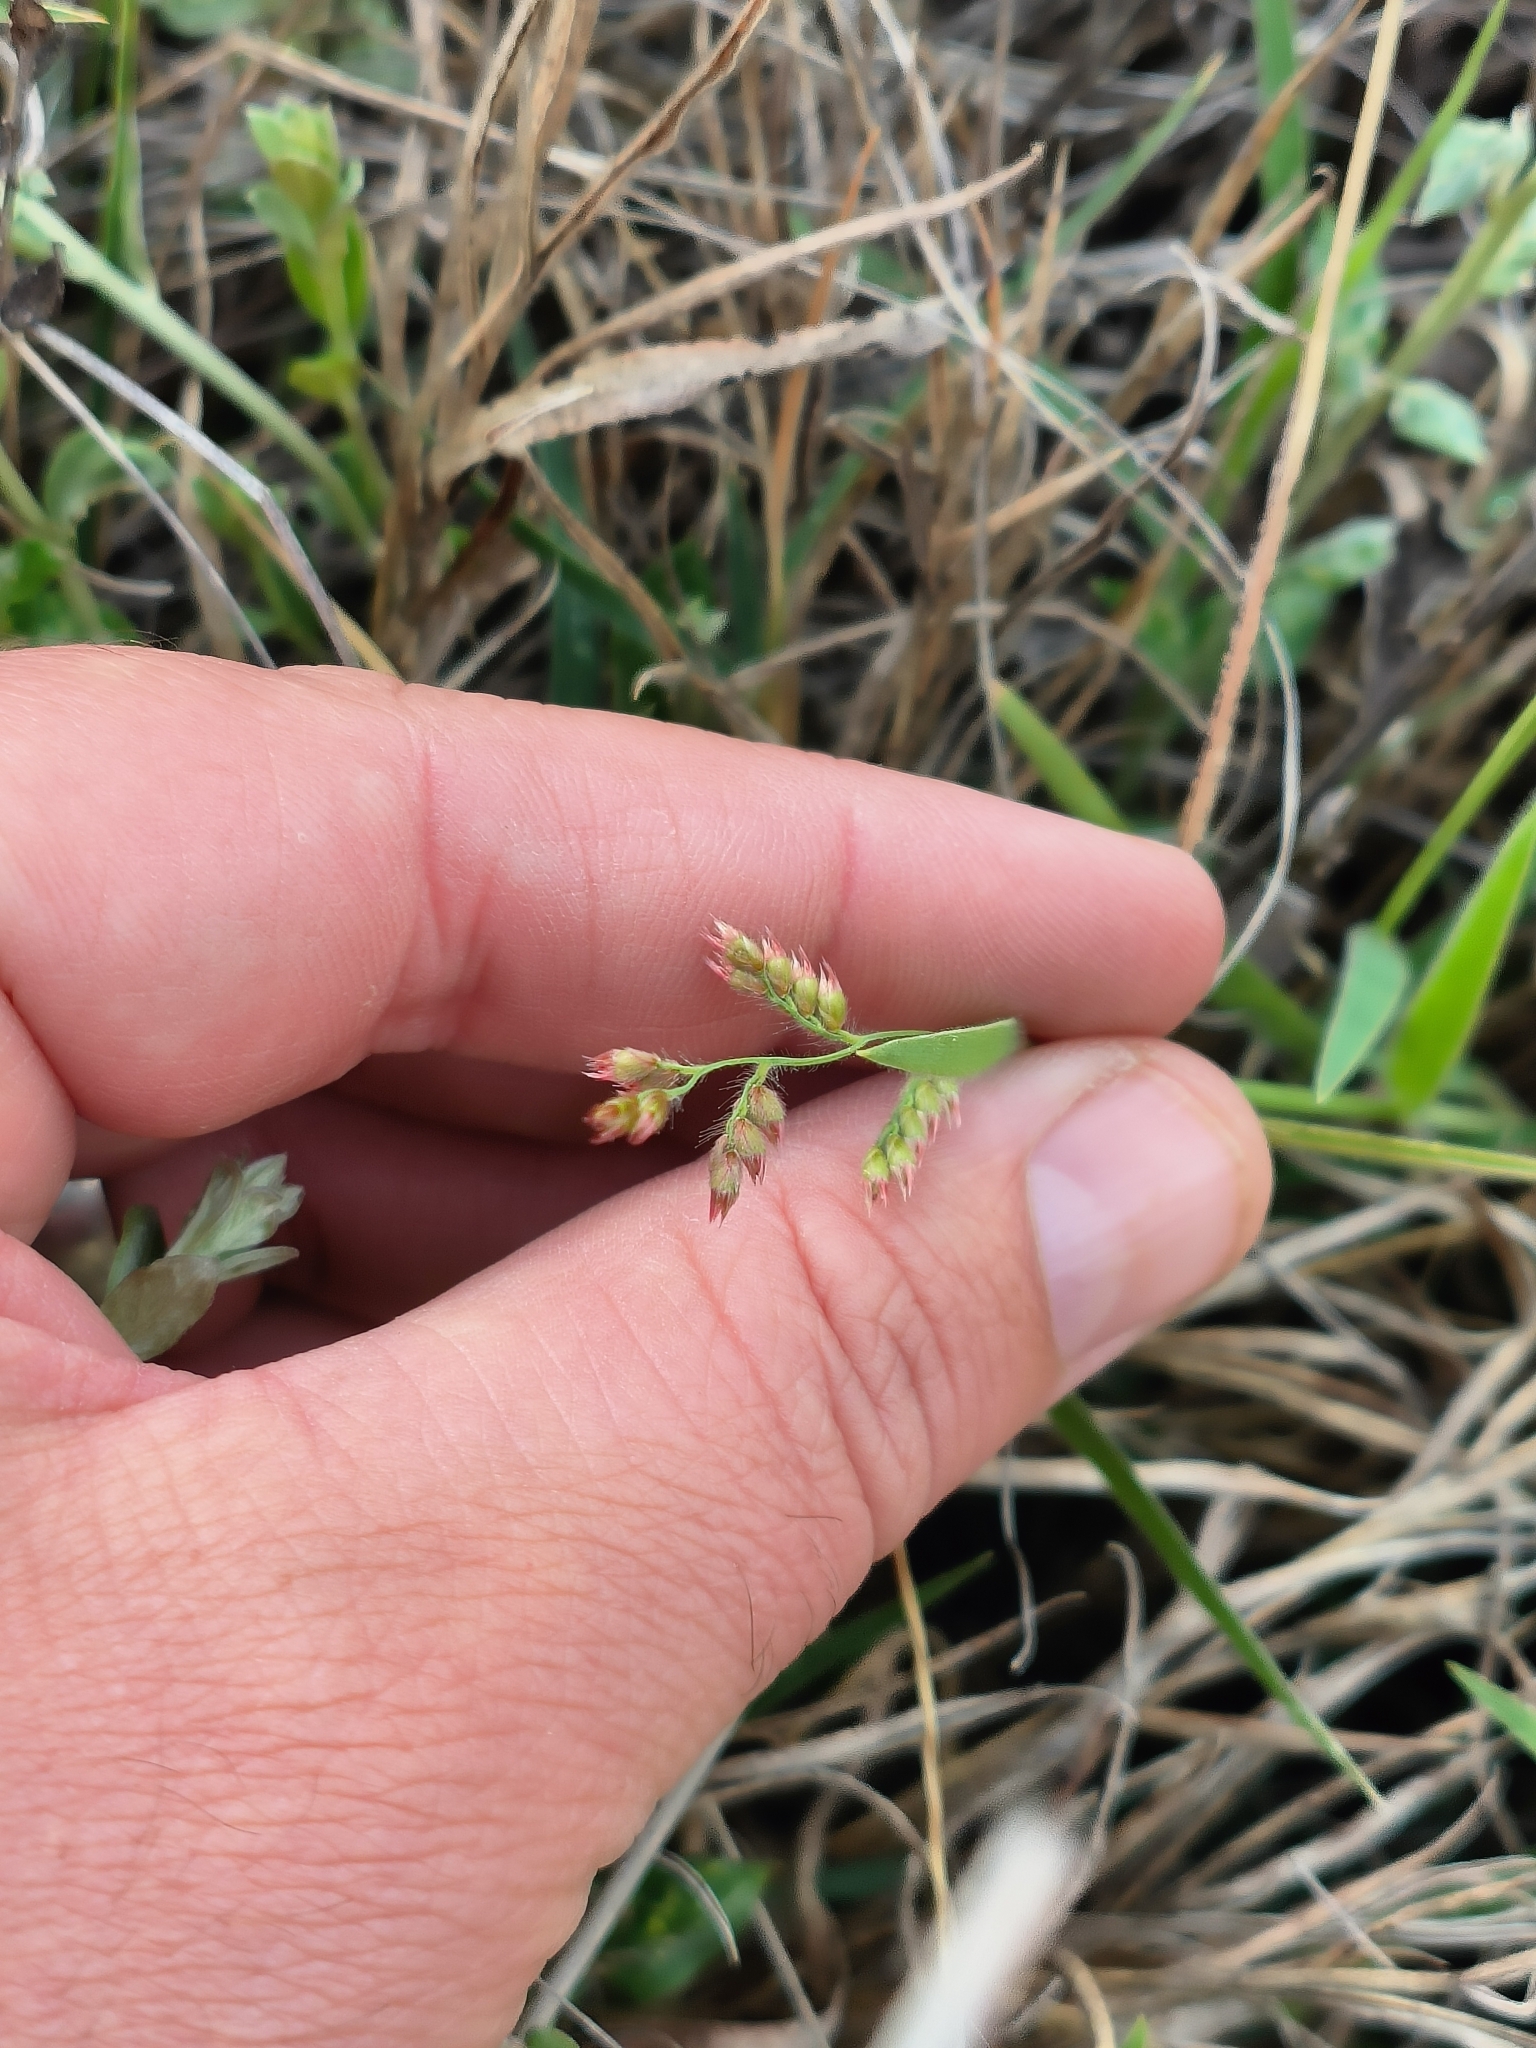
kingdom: Plantae
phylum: Tracheophyta
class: Liliopsida
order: Poales
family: Poaceae
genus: Urochloa
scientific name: Urochloa serrata
